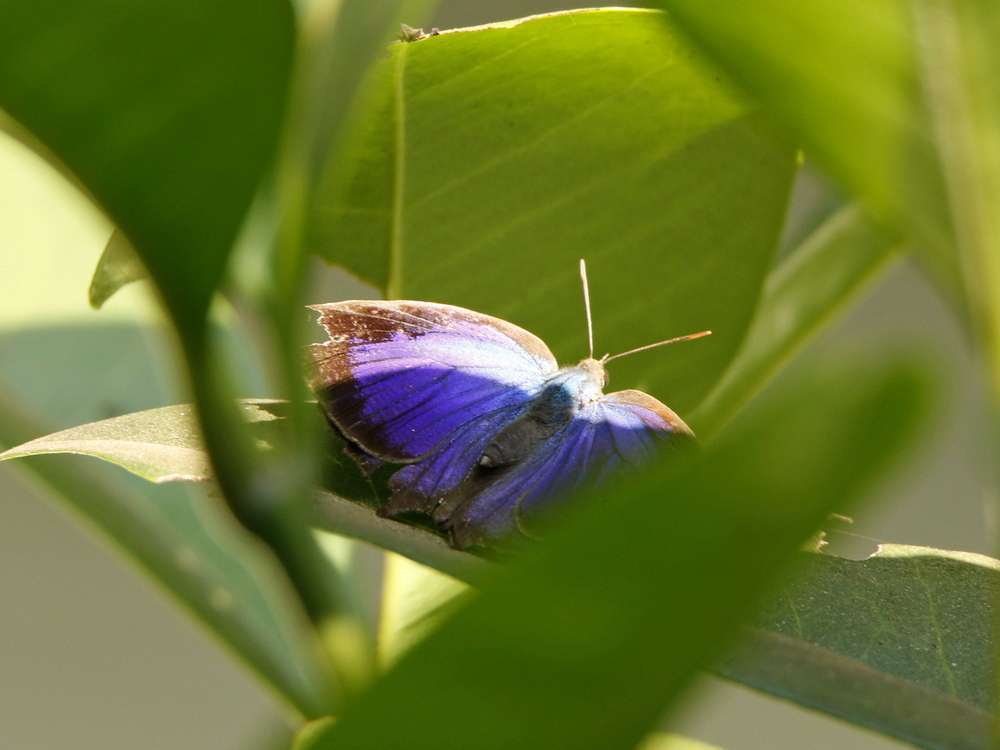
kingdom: Animalia
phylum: Arthropoda
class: Insecta
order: Lepidoptera
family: Lycaenidae
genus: Arhopala
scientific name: Arhopala centaurus
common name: Dull oak-blue
